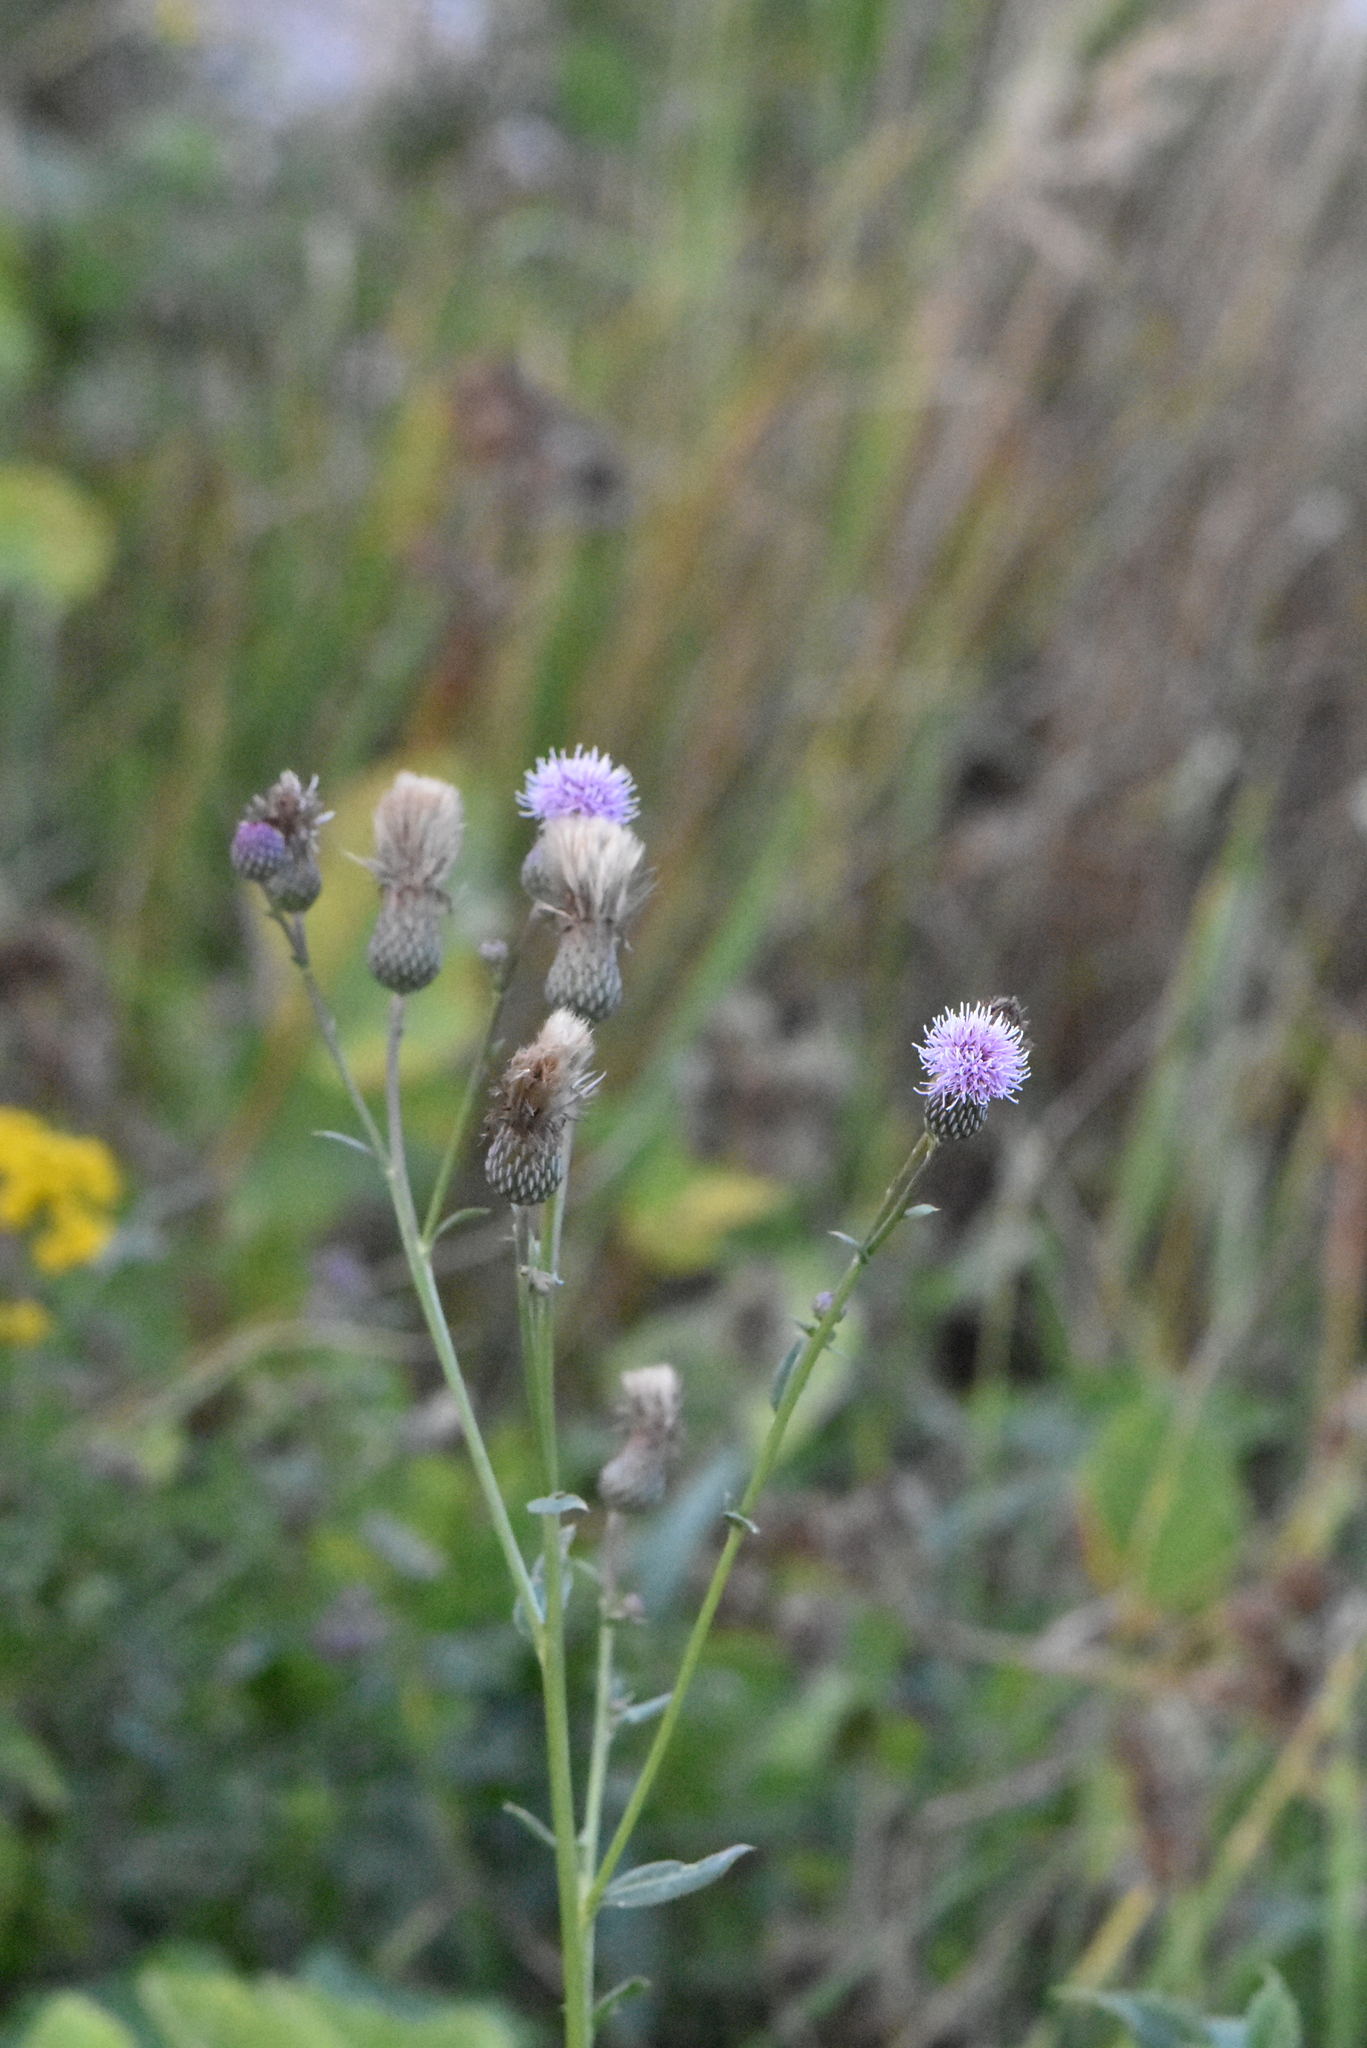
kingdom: Plantae
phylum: Tracheophyta
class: Magnoliopsida
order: Asterales
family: Asteraceae
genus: Cirsium
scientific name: Cirsium arvense
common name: Creeping thistle
